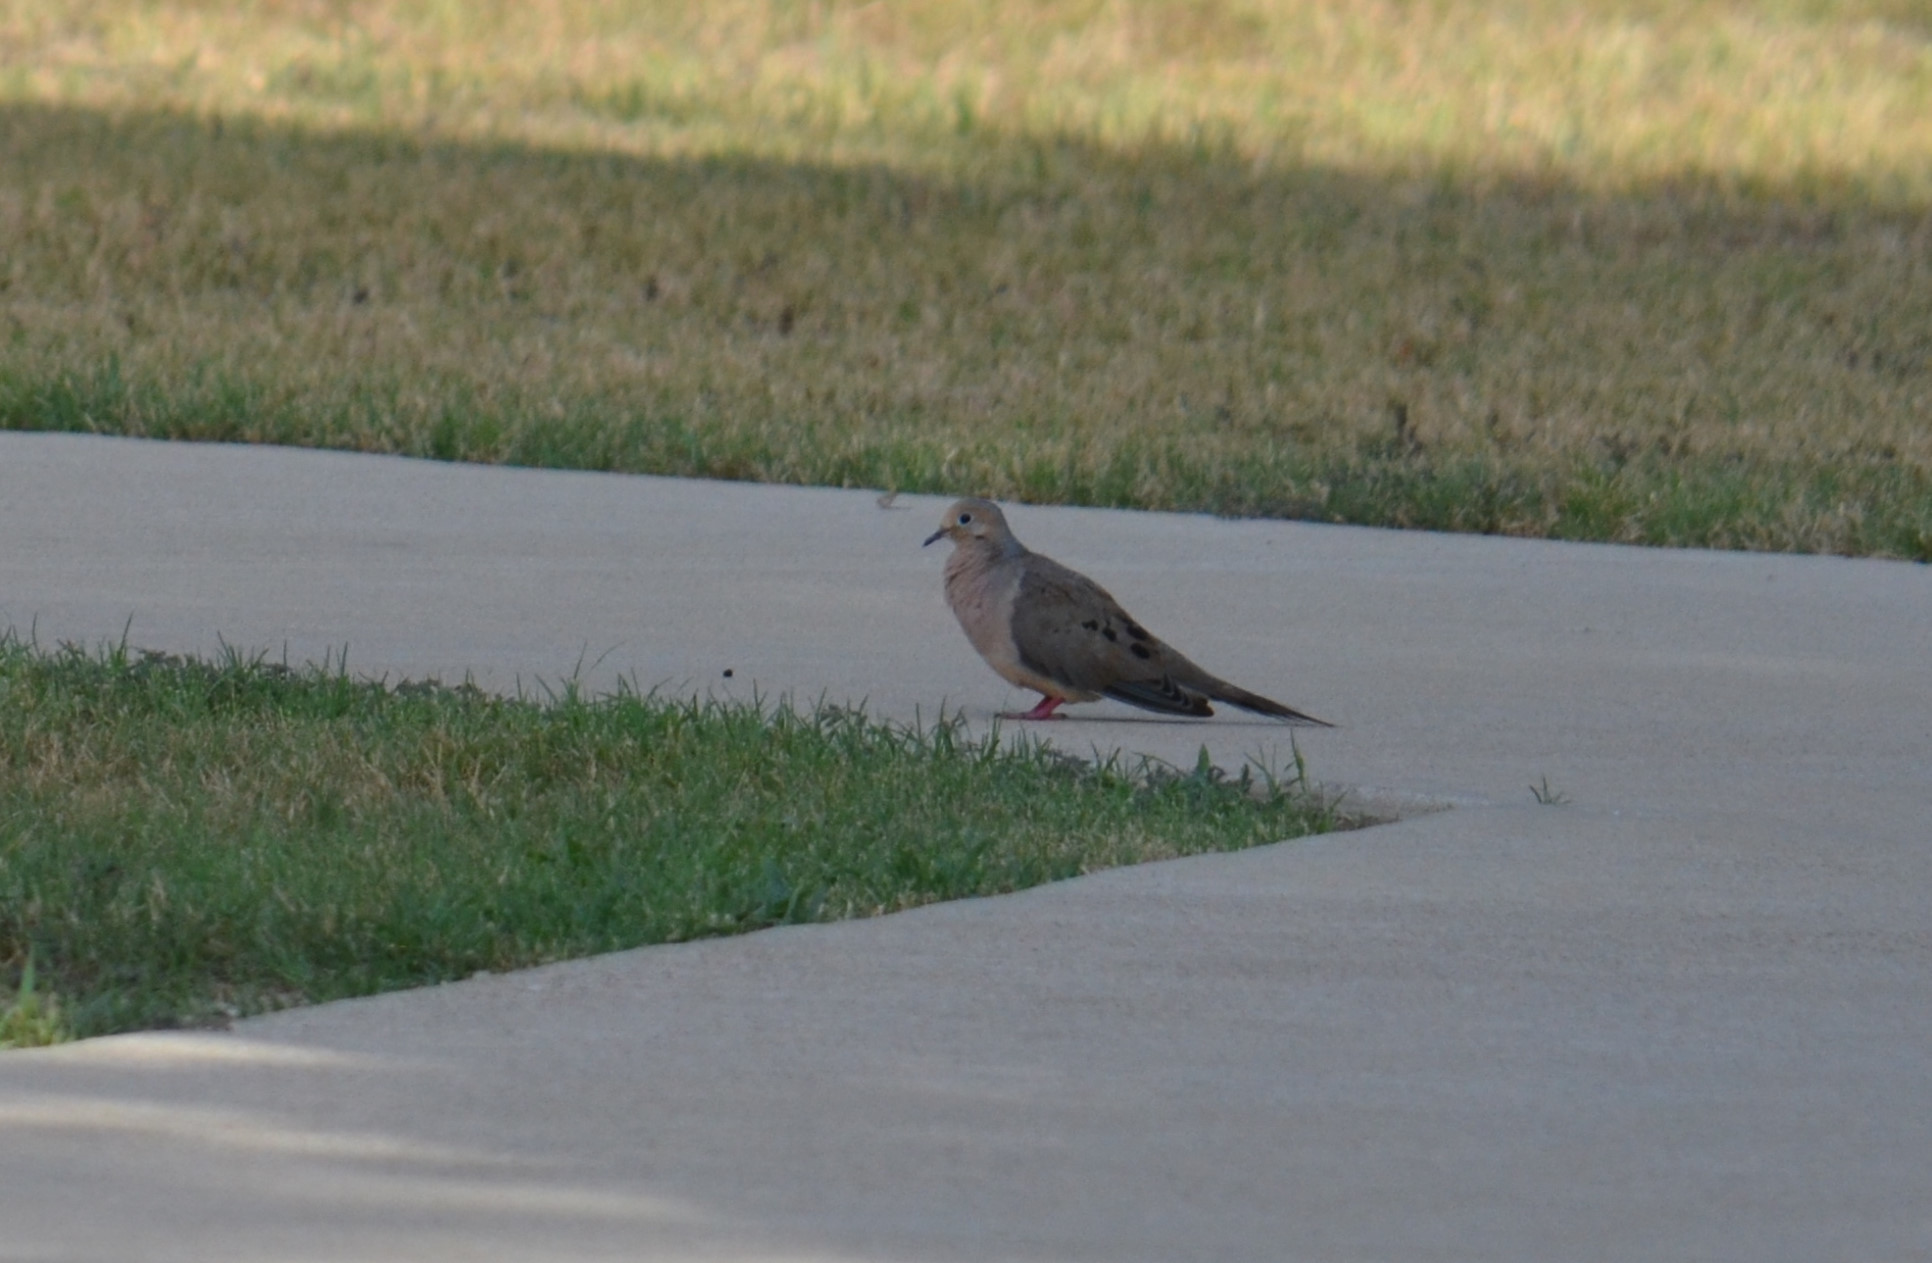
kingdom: Animalia
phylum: Chordata
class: Aves
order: Columbiformes
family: Columbidae
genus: Zenaida
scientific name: Zenaida macroura
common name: Mourning dove
